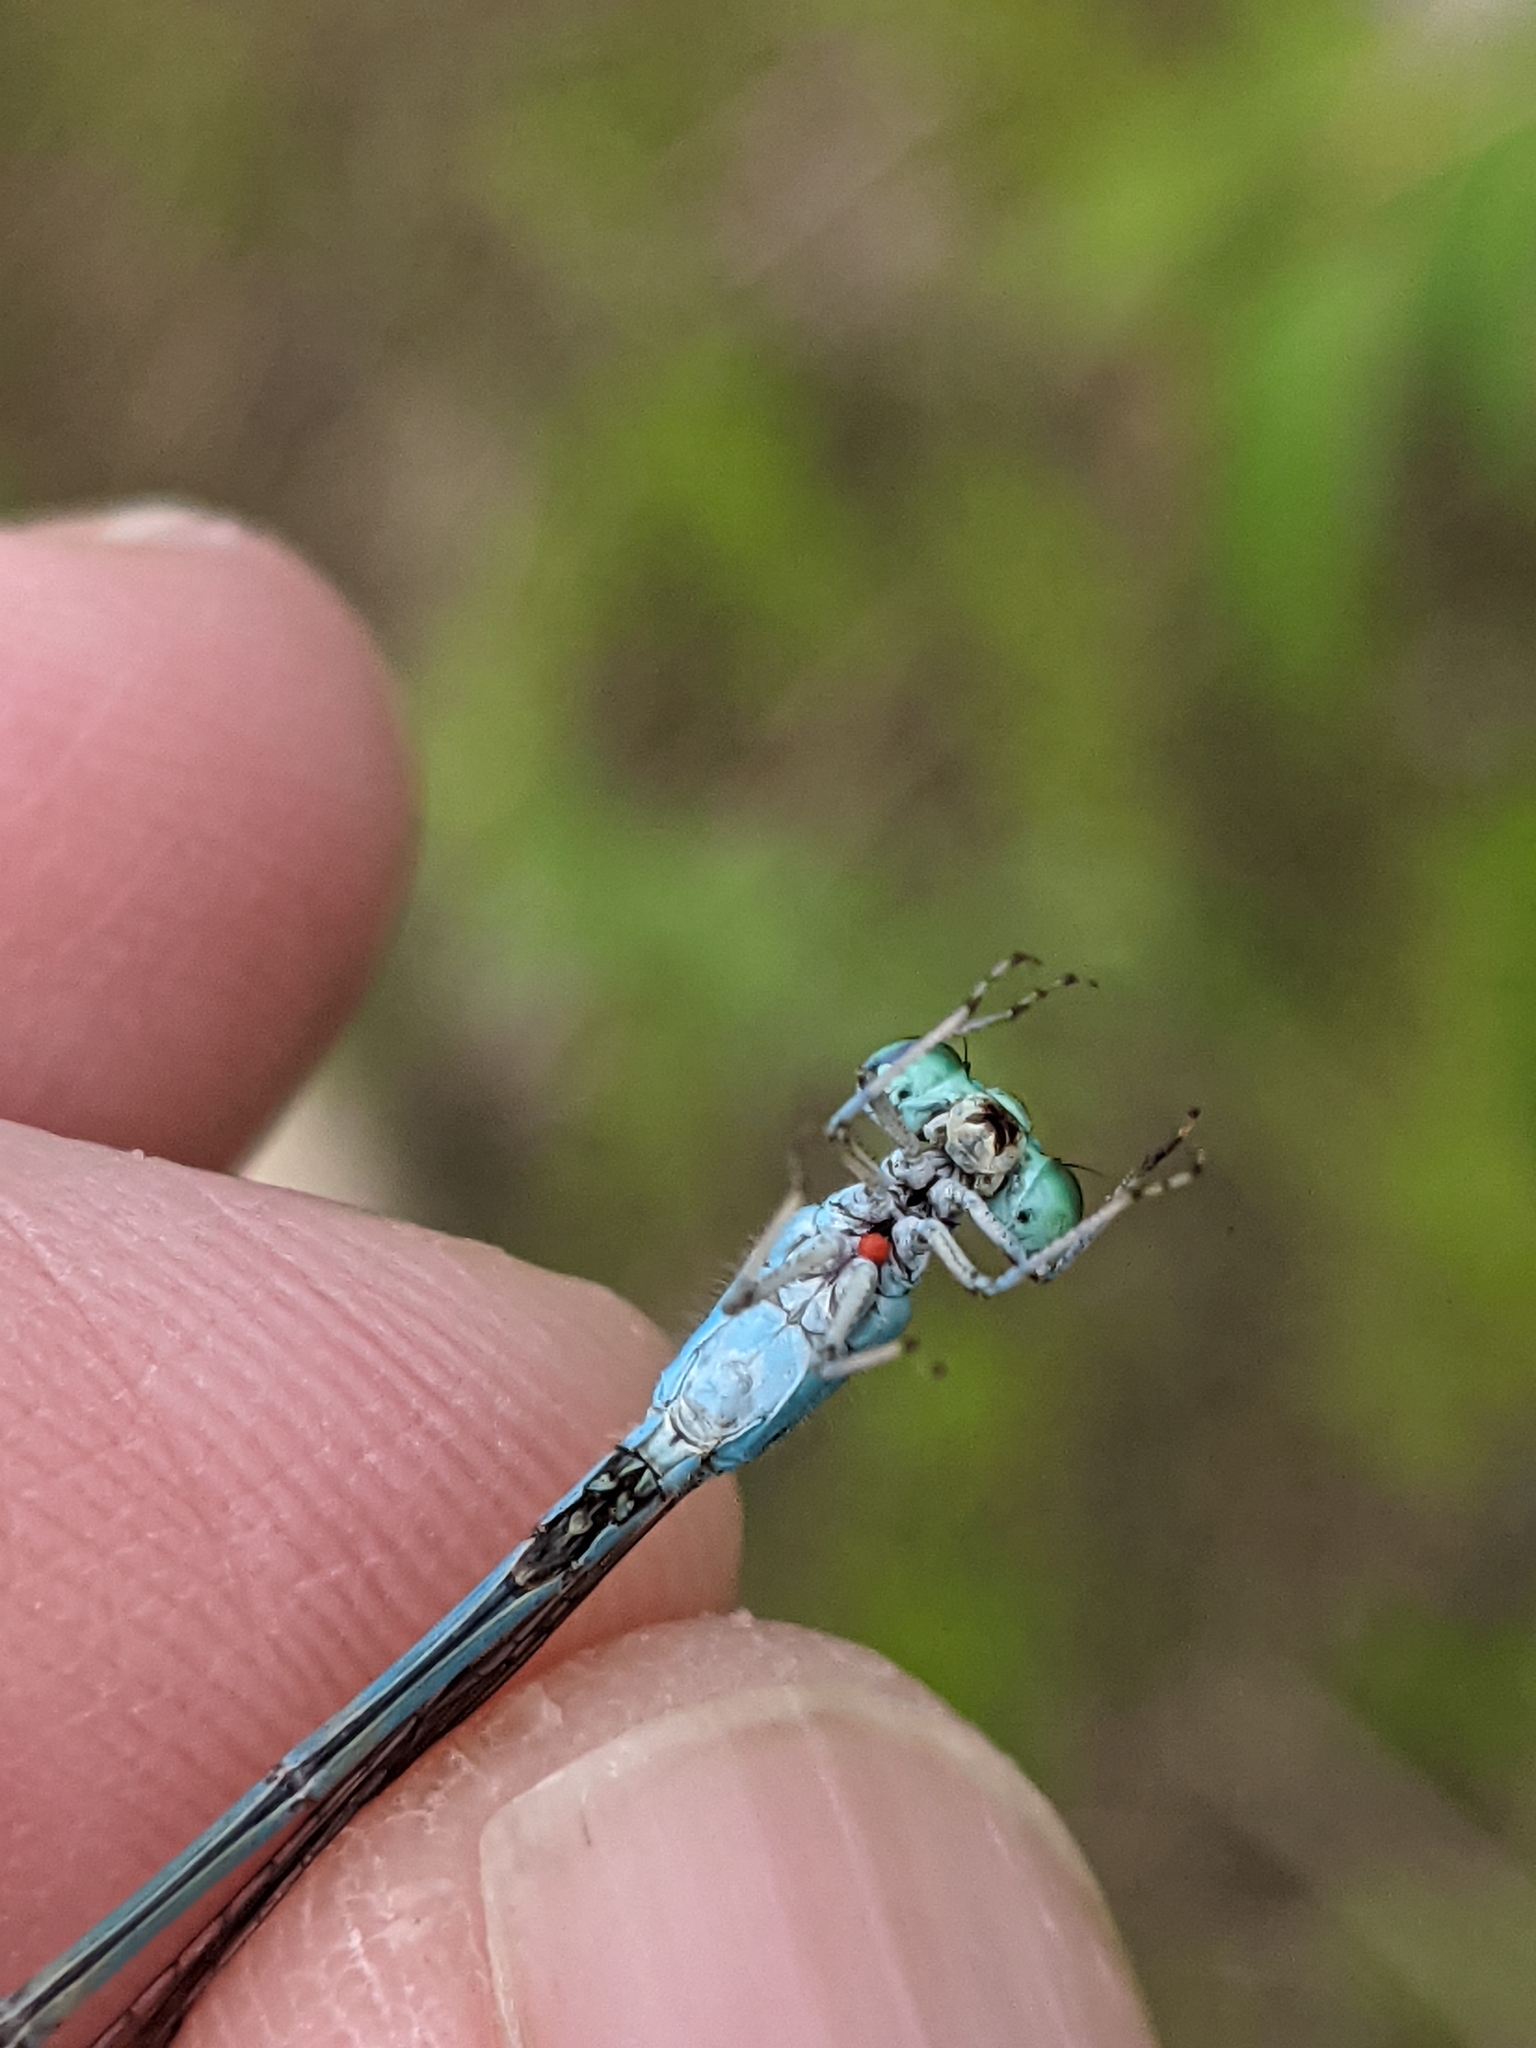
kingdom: Animalia
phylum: Arthropoda
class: Insecta
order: Odonata
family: Coenagrionidae
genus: Enallagma
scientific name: Enallagma exsulans
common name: Stream bluet
